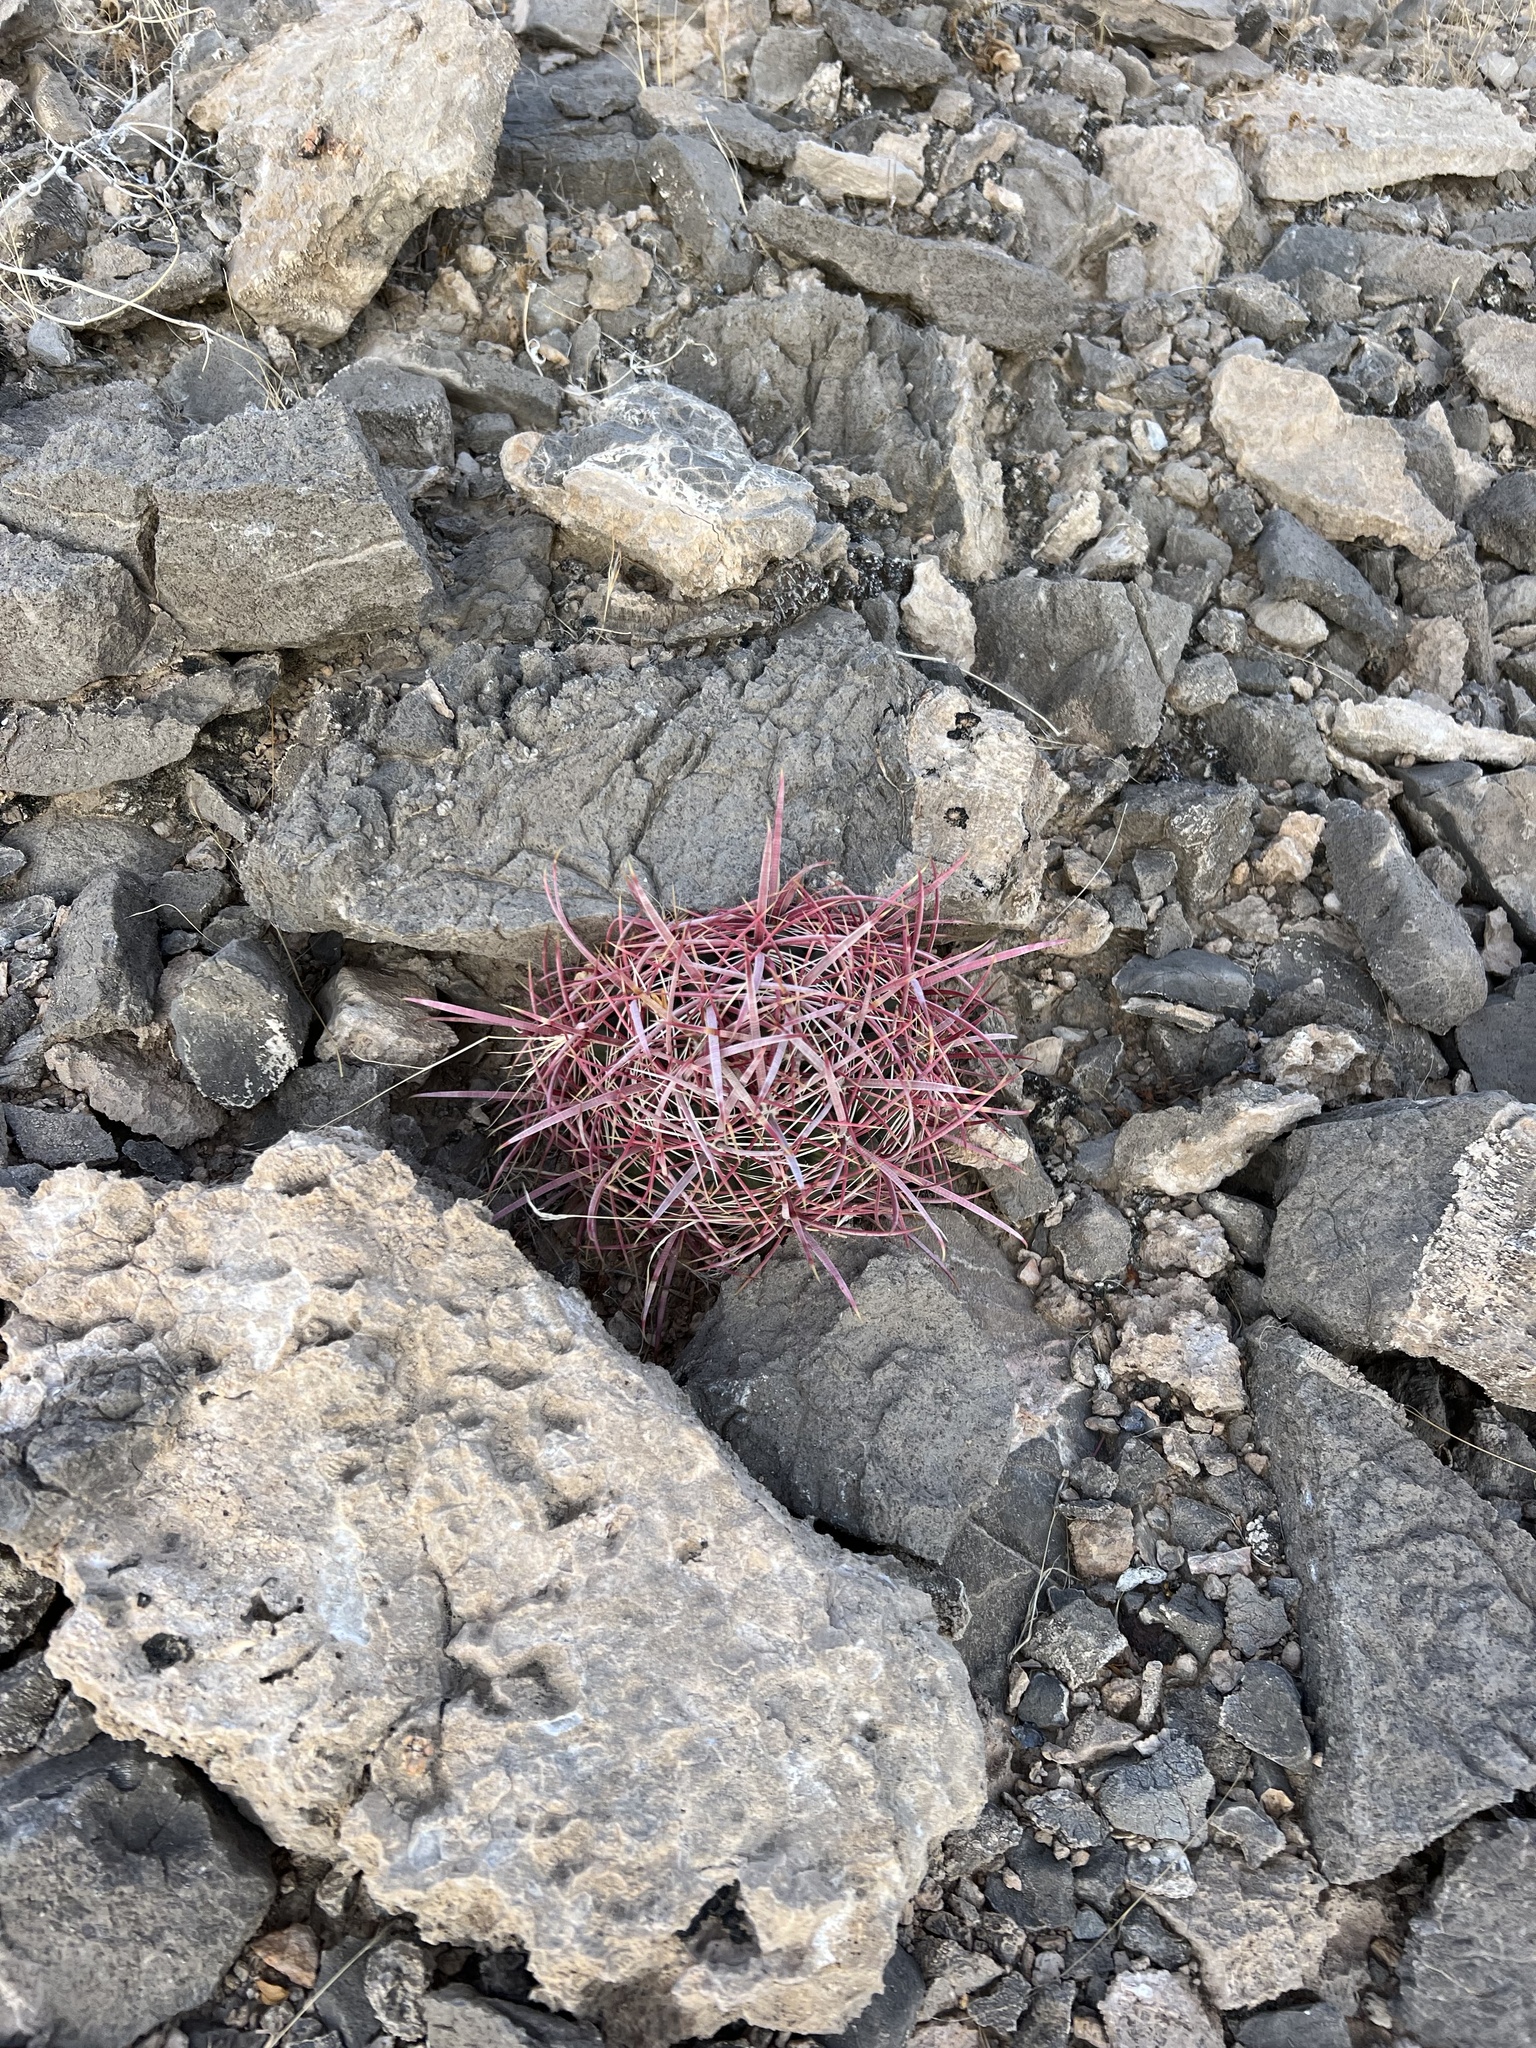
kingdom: Plantae
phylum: Tracheophyta
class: Magnoliopsida
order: Caryophyllales
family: Cactaceae
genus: Ferocactus
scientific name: Ferocactus cylindraceus
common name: California barrel cactus
